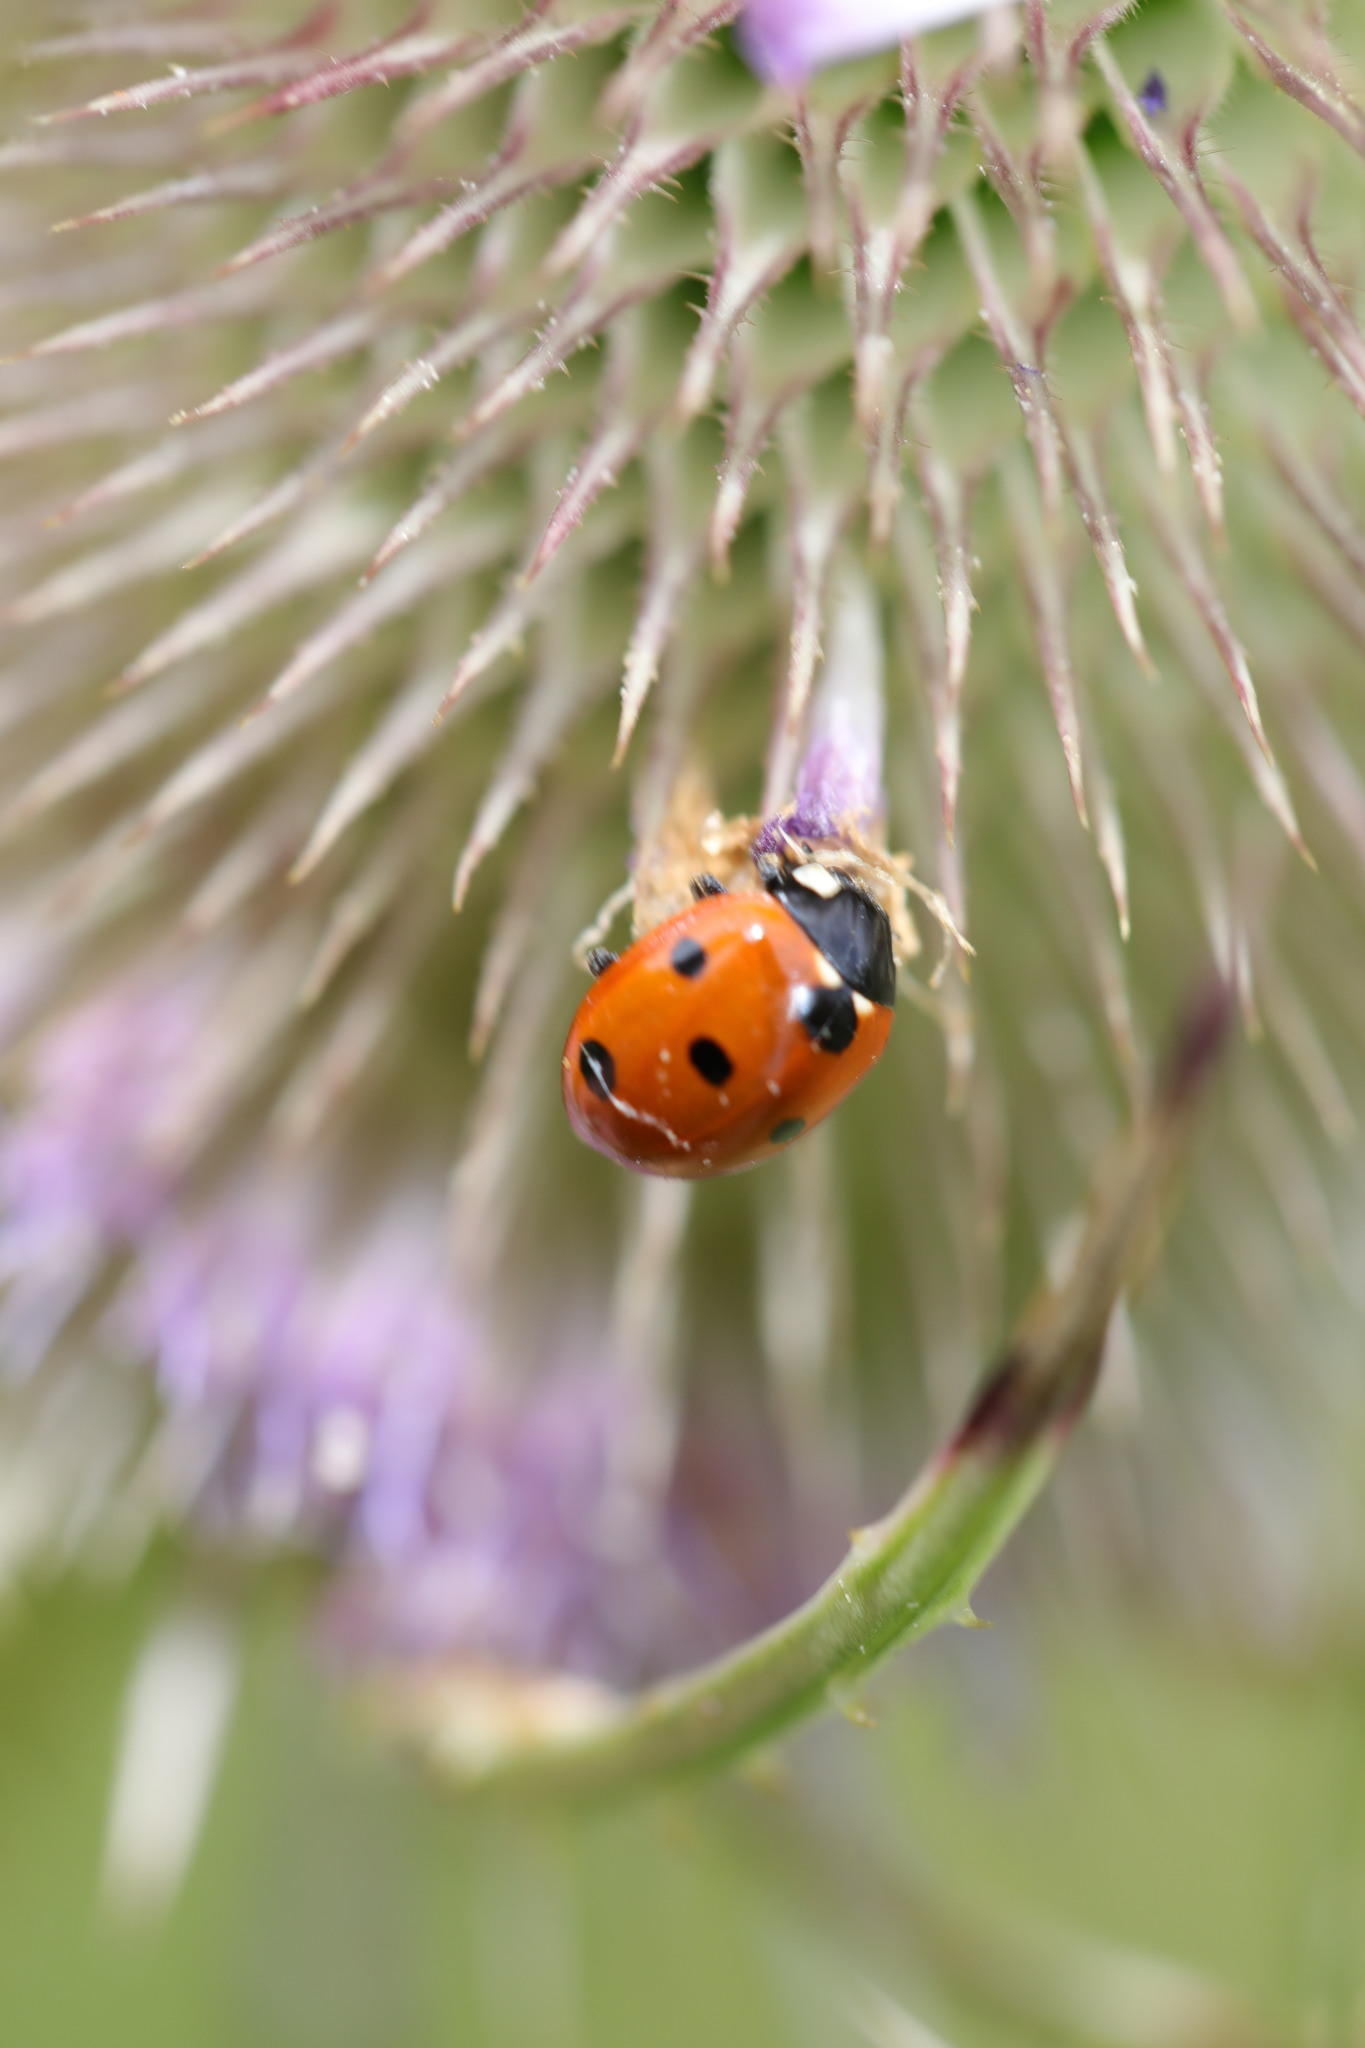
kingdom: Animalia
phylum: Arthropoda
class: Insecta
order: Coleoptera
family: Coccinellidae
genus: Coccinella
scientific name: Coccinella septempunctata
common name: Sevenspotted lady beetle
